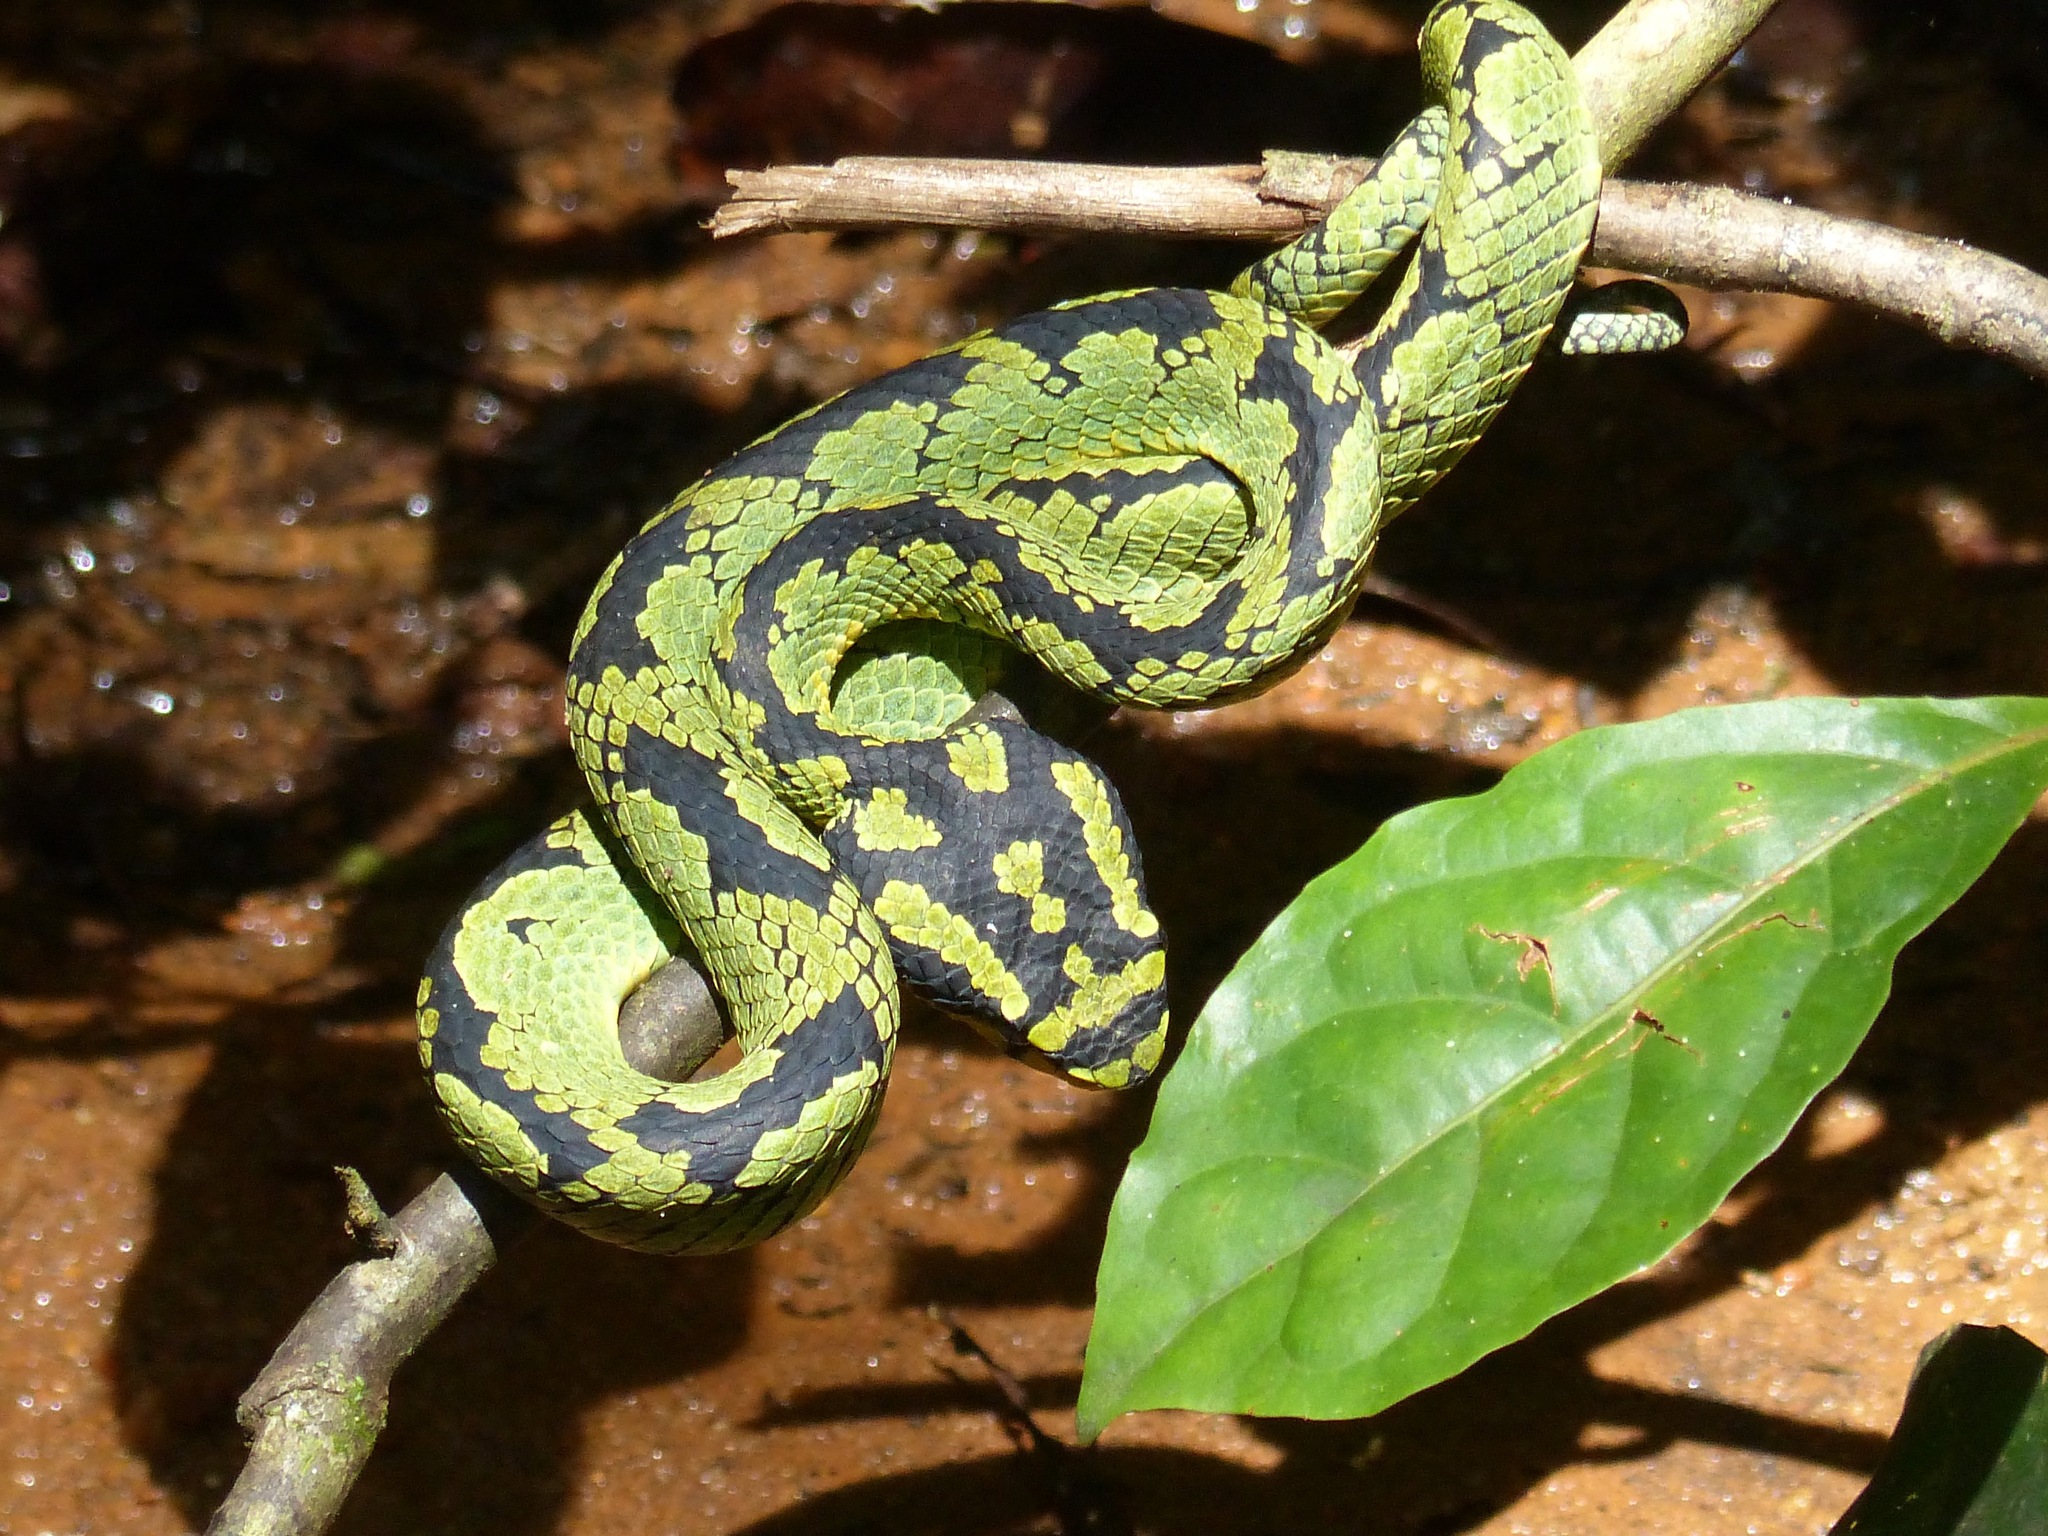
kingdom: Animalia
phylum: Chordata
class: Squamata
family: Viperidae
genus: Craspedocephalus
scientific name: Craspedocephalus trigonocephalus
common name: Ceylon pit viper
